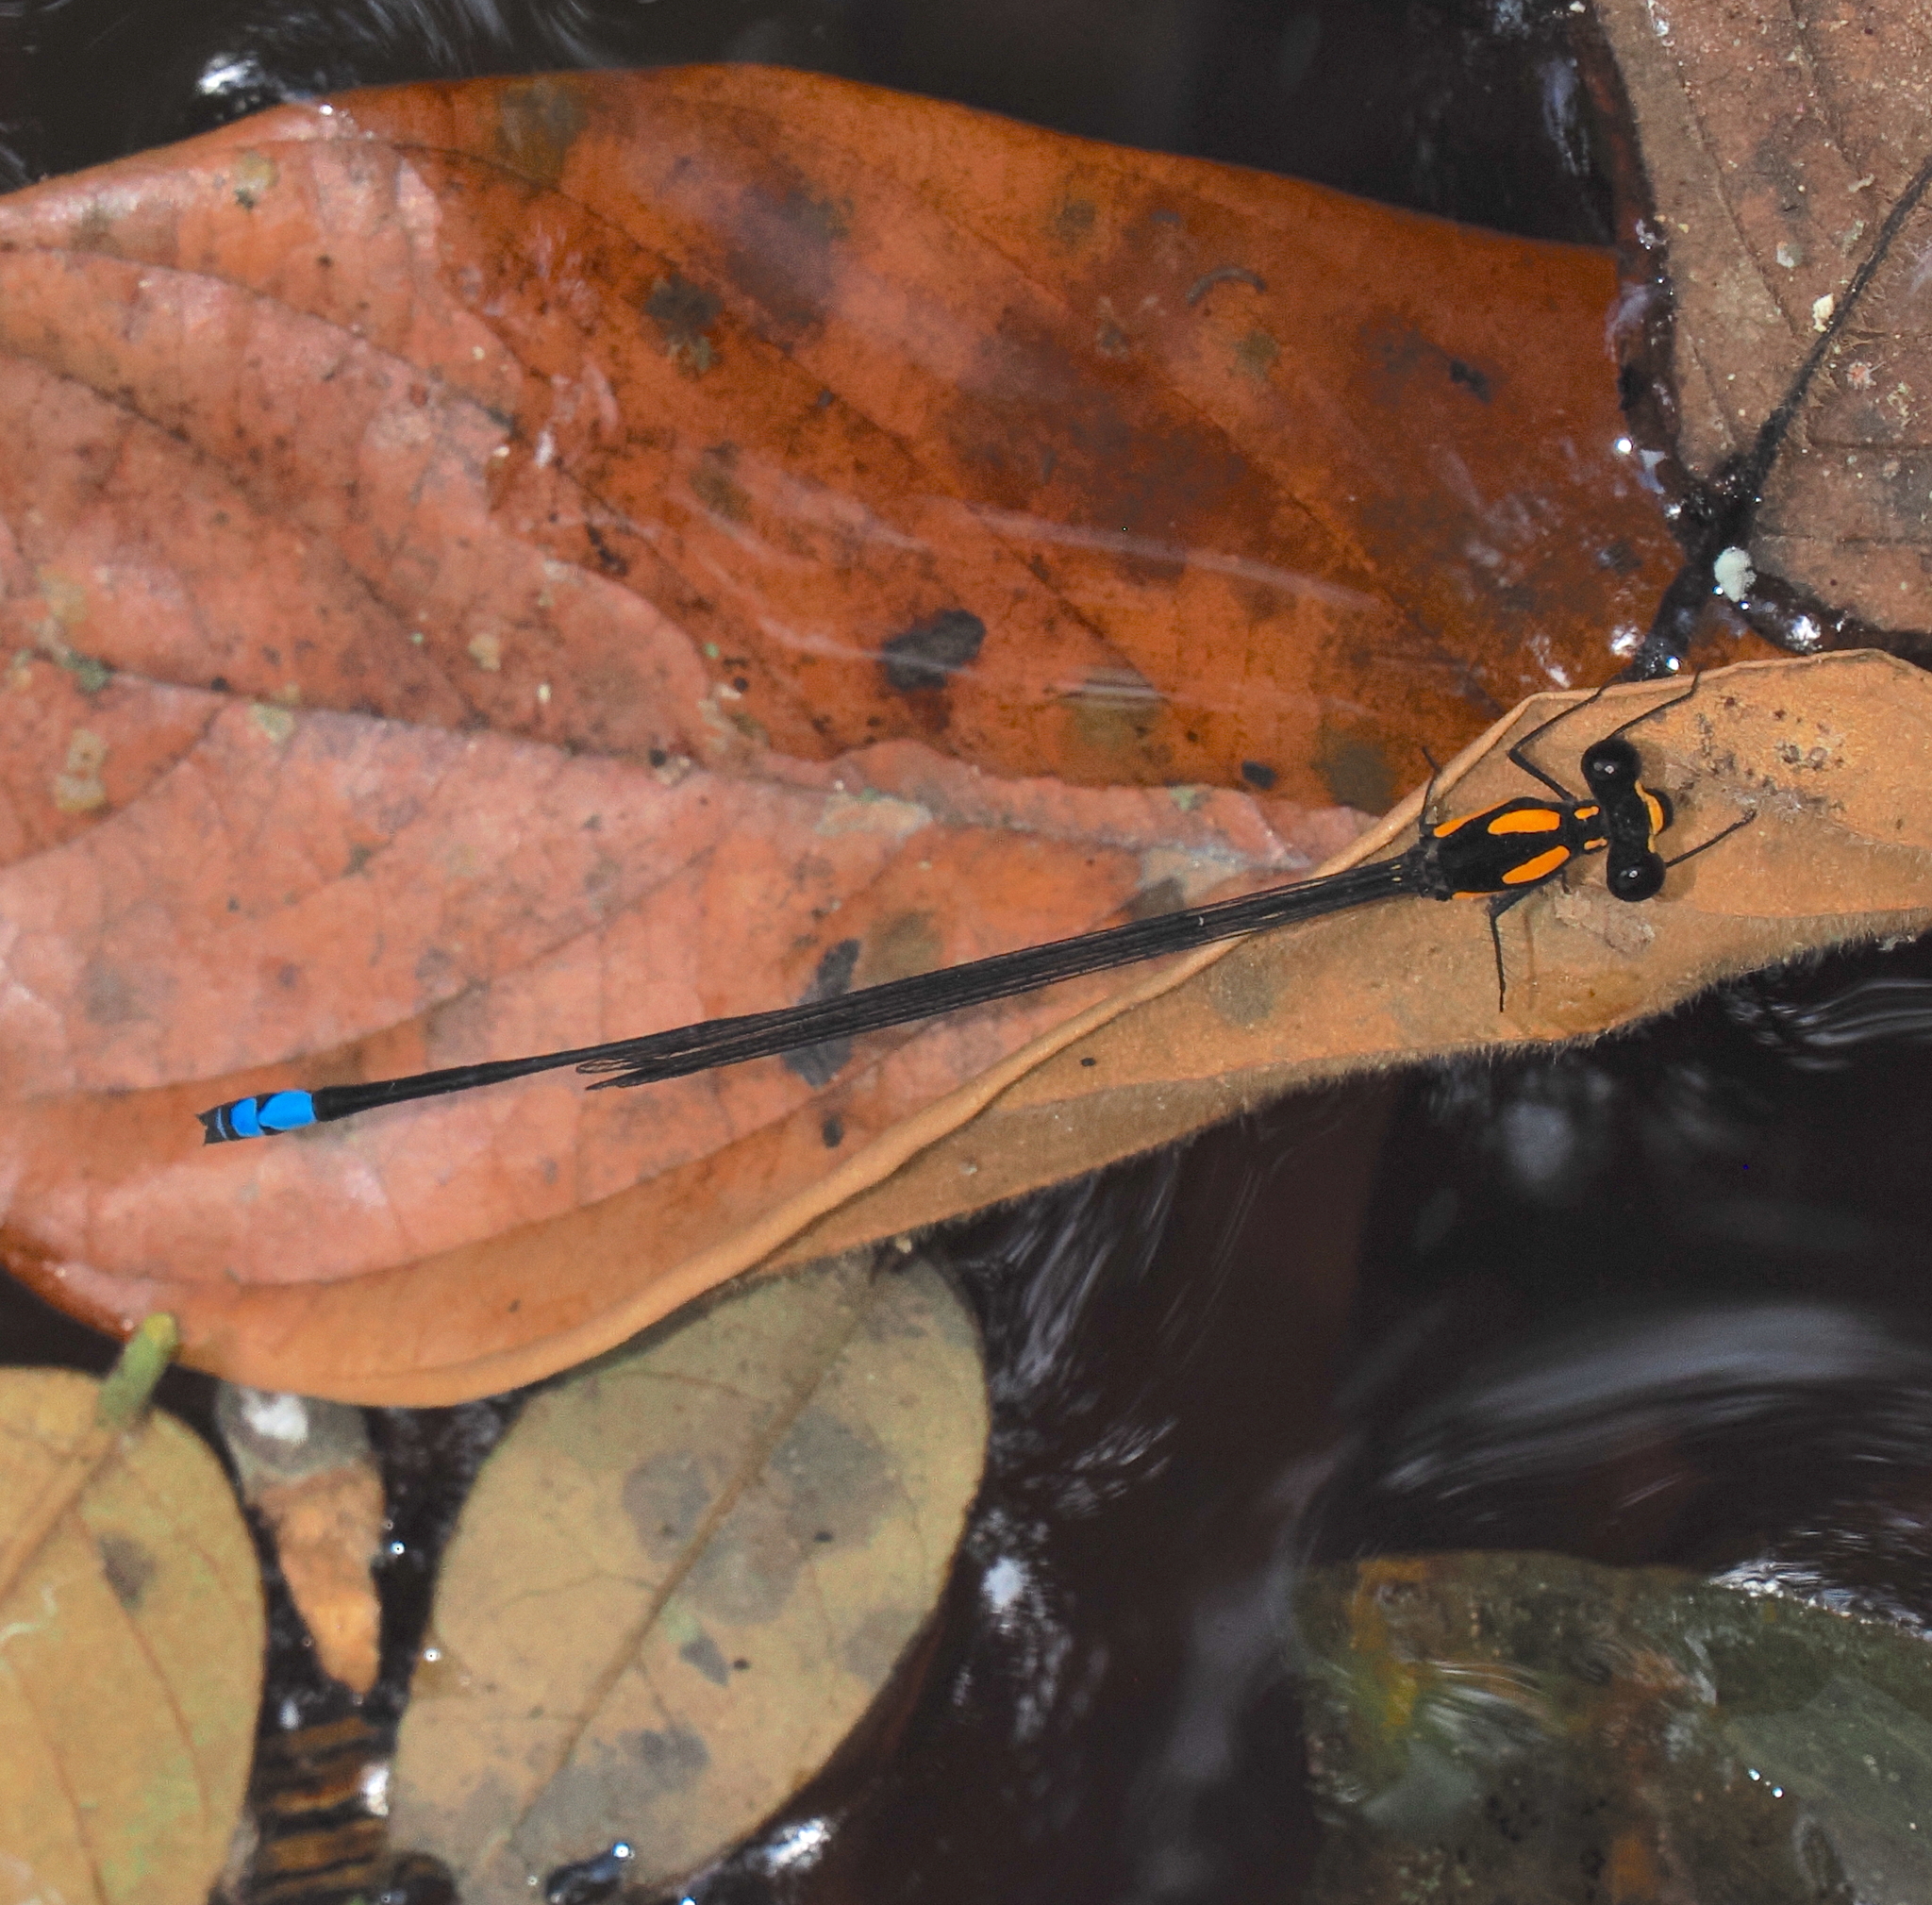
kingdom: Animalia
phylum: Arthropoda
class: Insecta
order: Odonata
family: Platycnemididae
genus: Nososticta
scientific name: Nososticta insignis
